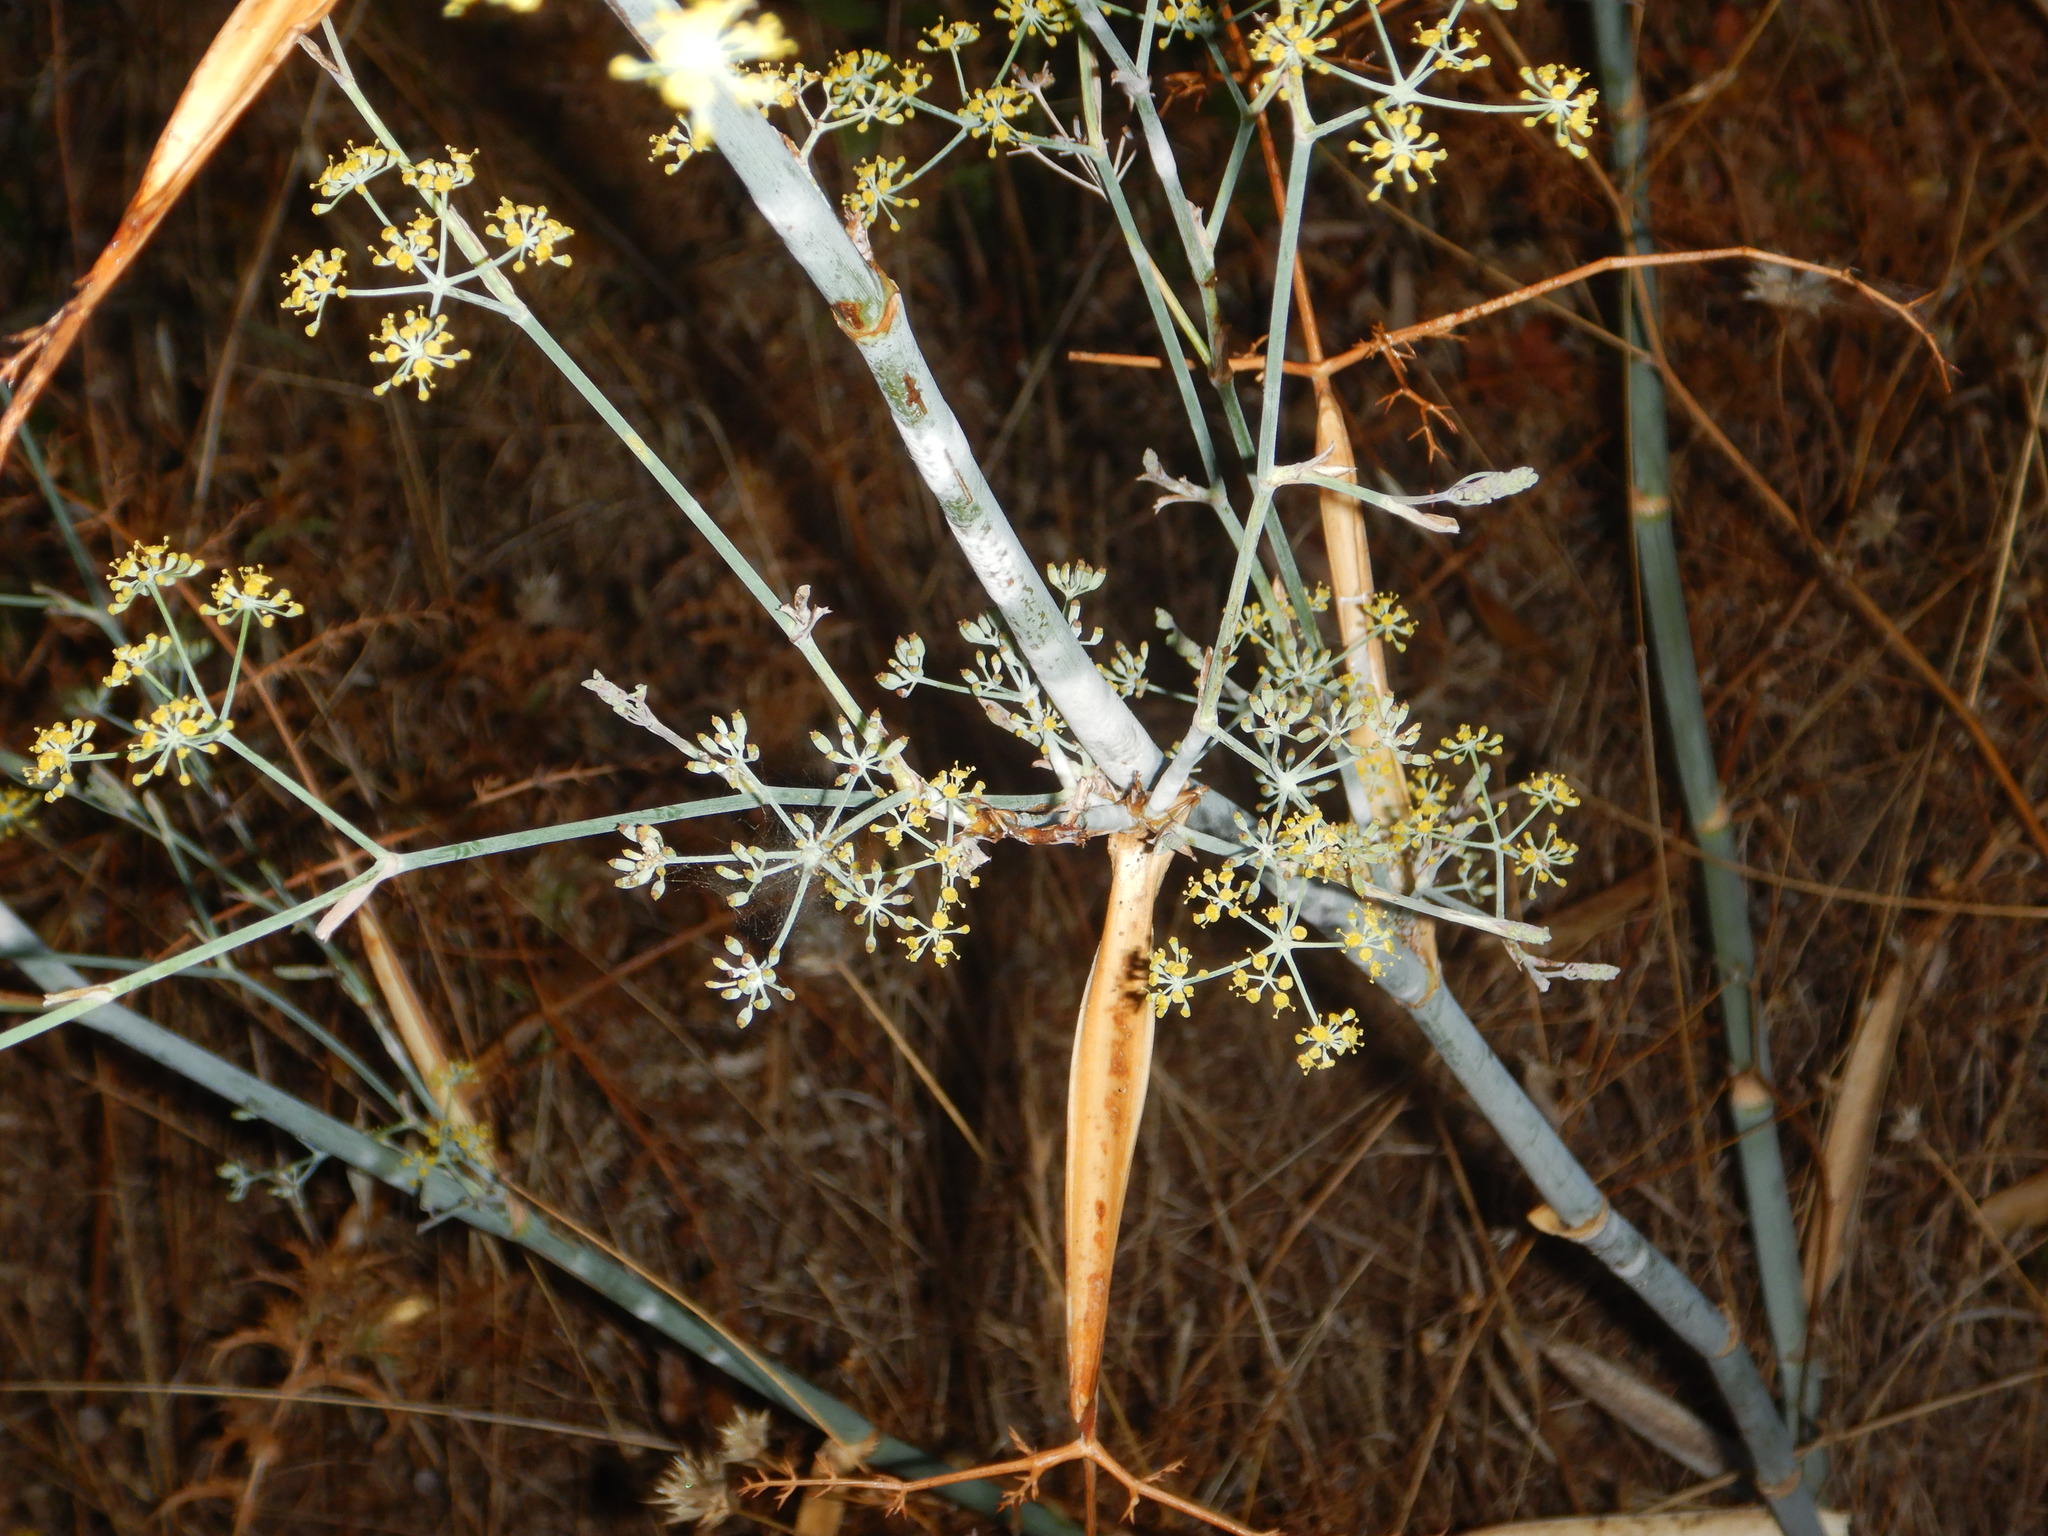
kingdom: Plantae
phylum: Tracheophyta
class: Magnoliopsida
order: Apiales
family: Apiaceae
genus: Foeniculum
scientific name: Foeniculum vulgare
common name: Fennel
